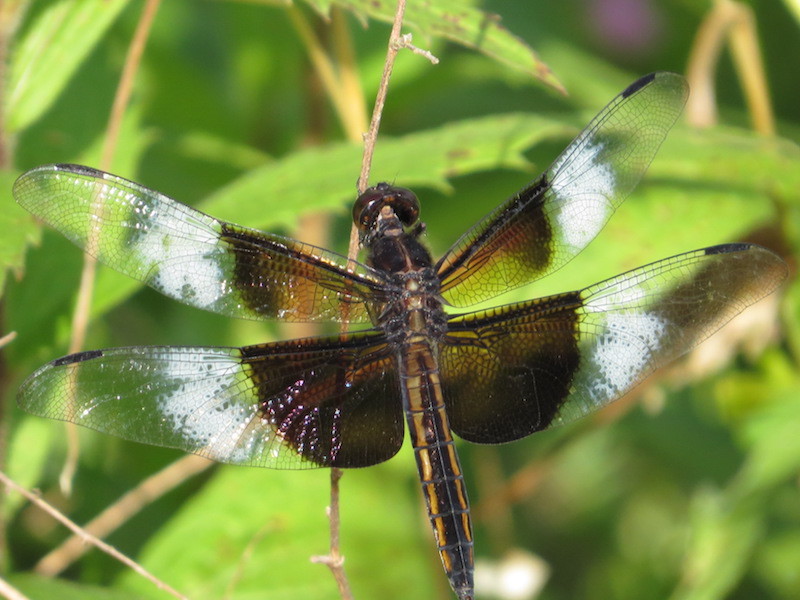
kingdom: Animalia
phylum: Arthropoda
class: Insecta
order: Odonata
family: Libellulidae
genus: Libellula
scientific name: Libellula luctuosa
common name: Widow skimmer
